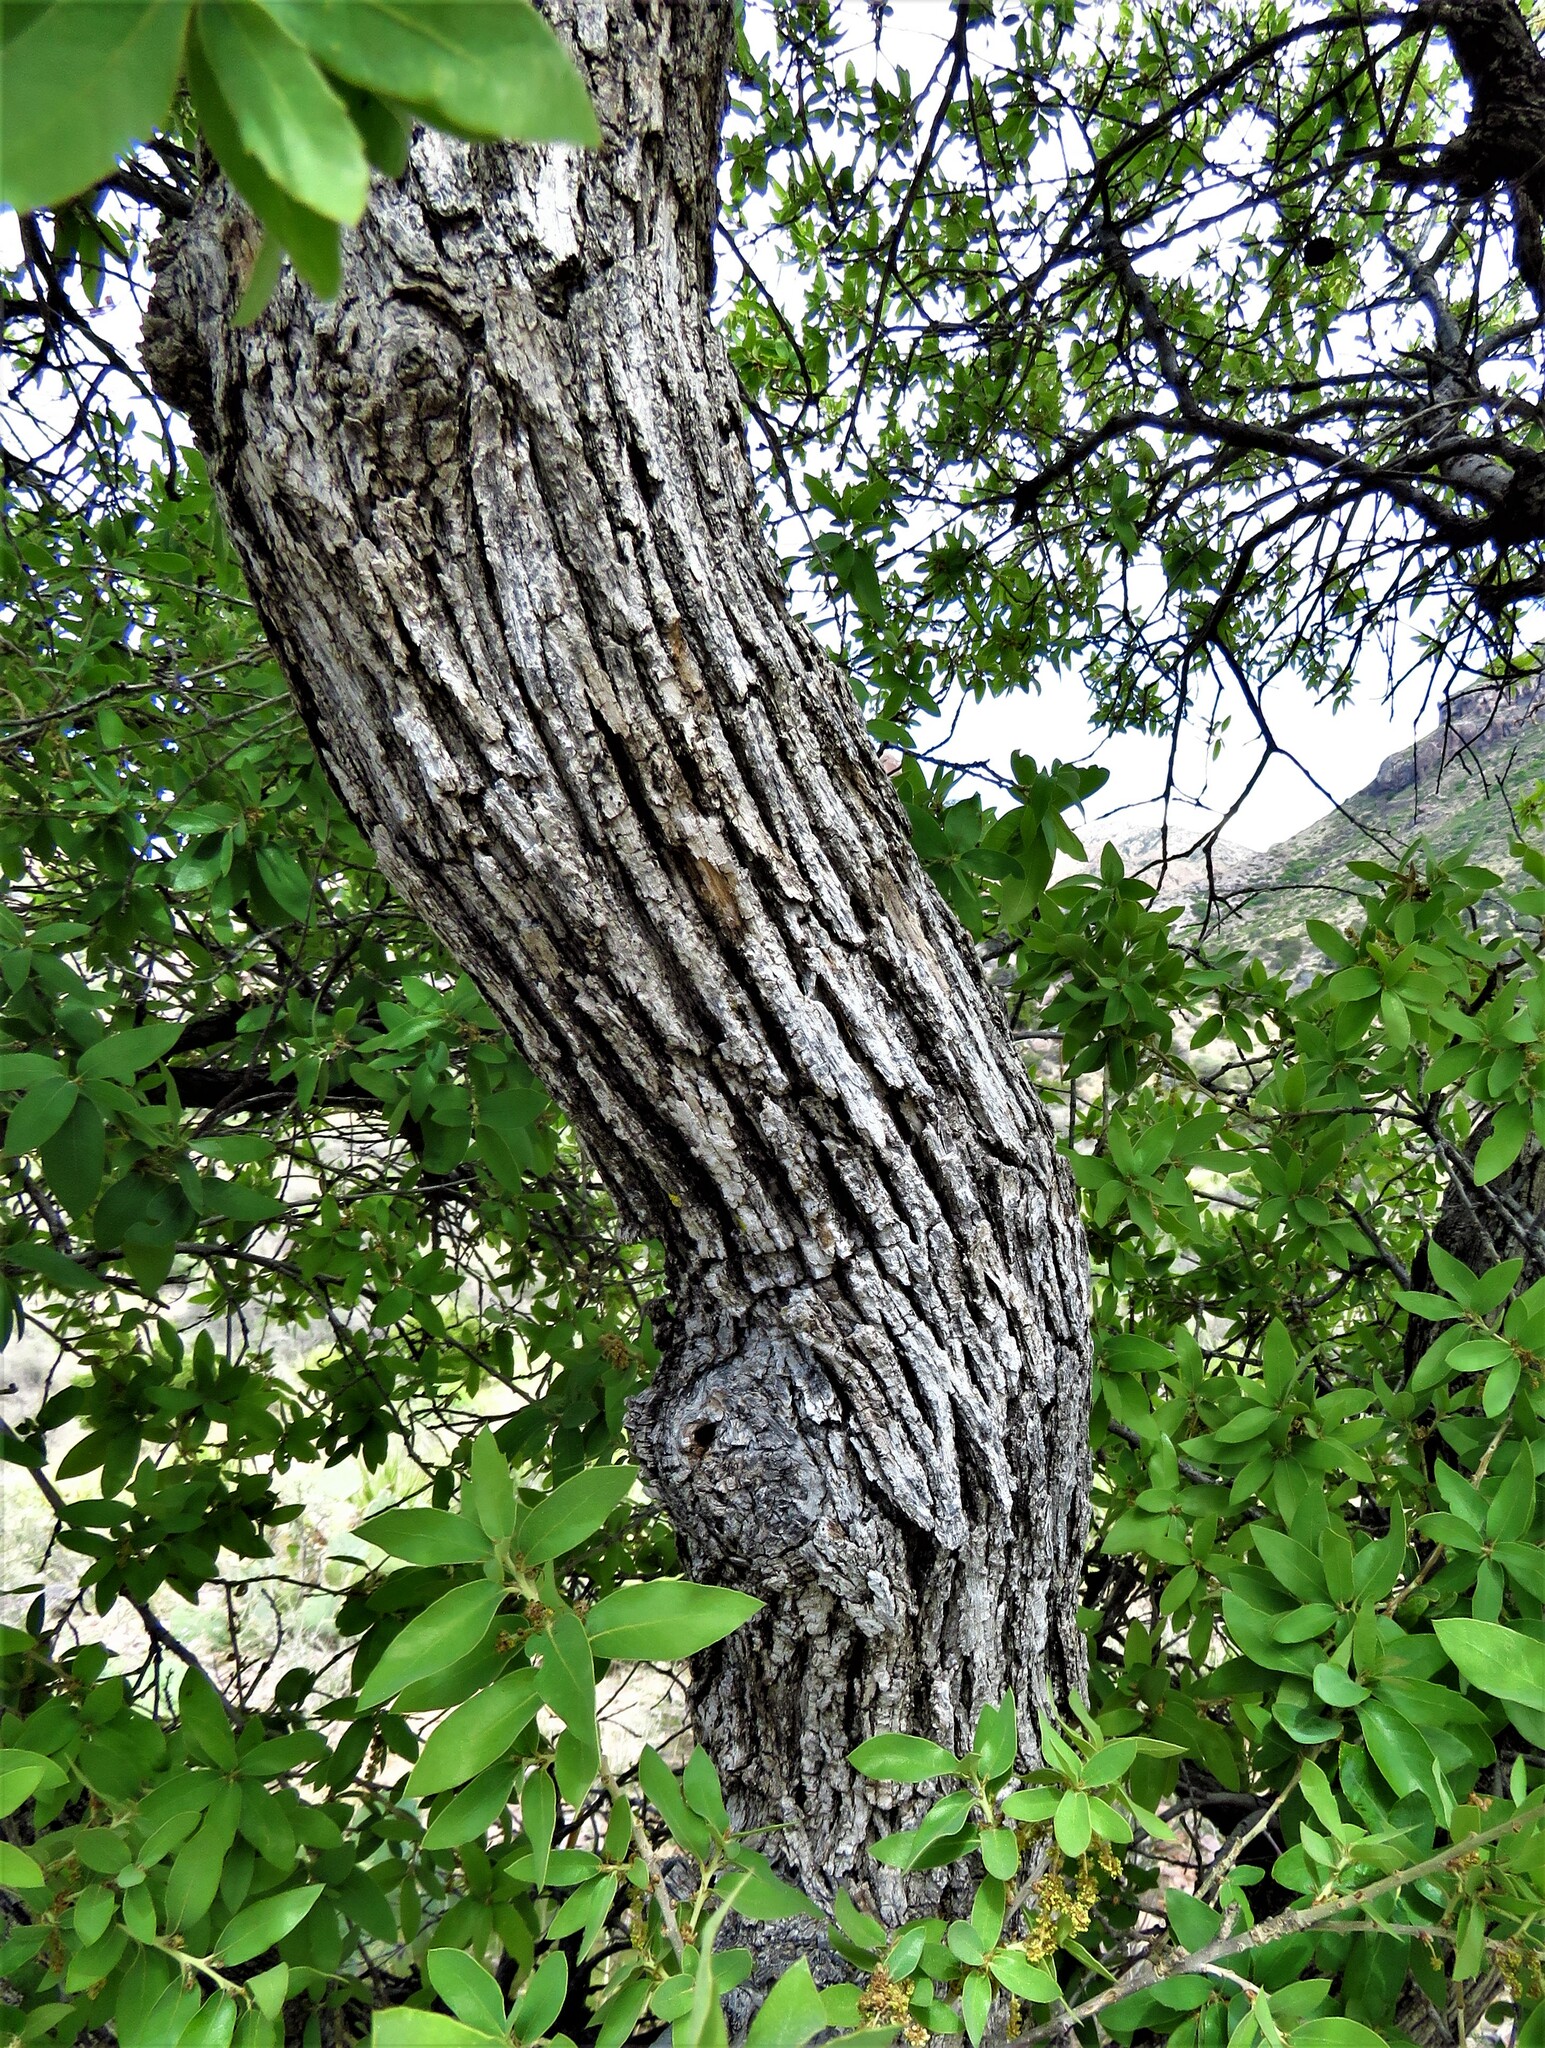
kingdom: Plantae
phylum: Tracheophyta
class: Magnoliopsida
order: Fagales
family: Fagaceae
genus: Quercus
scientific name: Quercus grisea
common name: Gray oak
